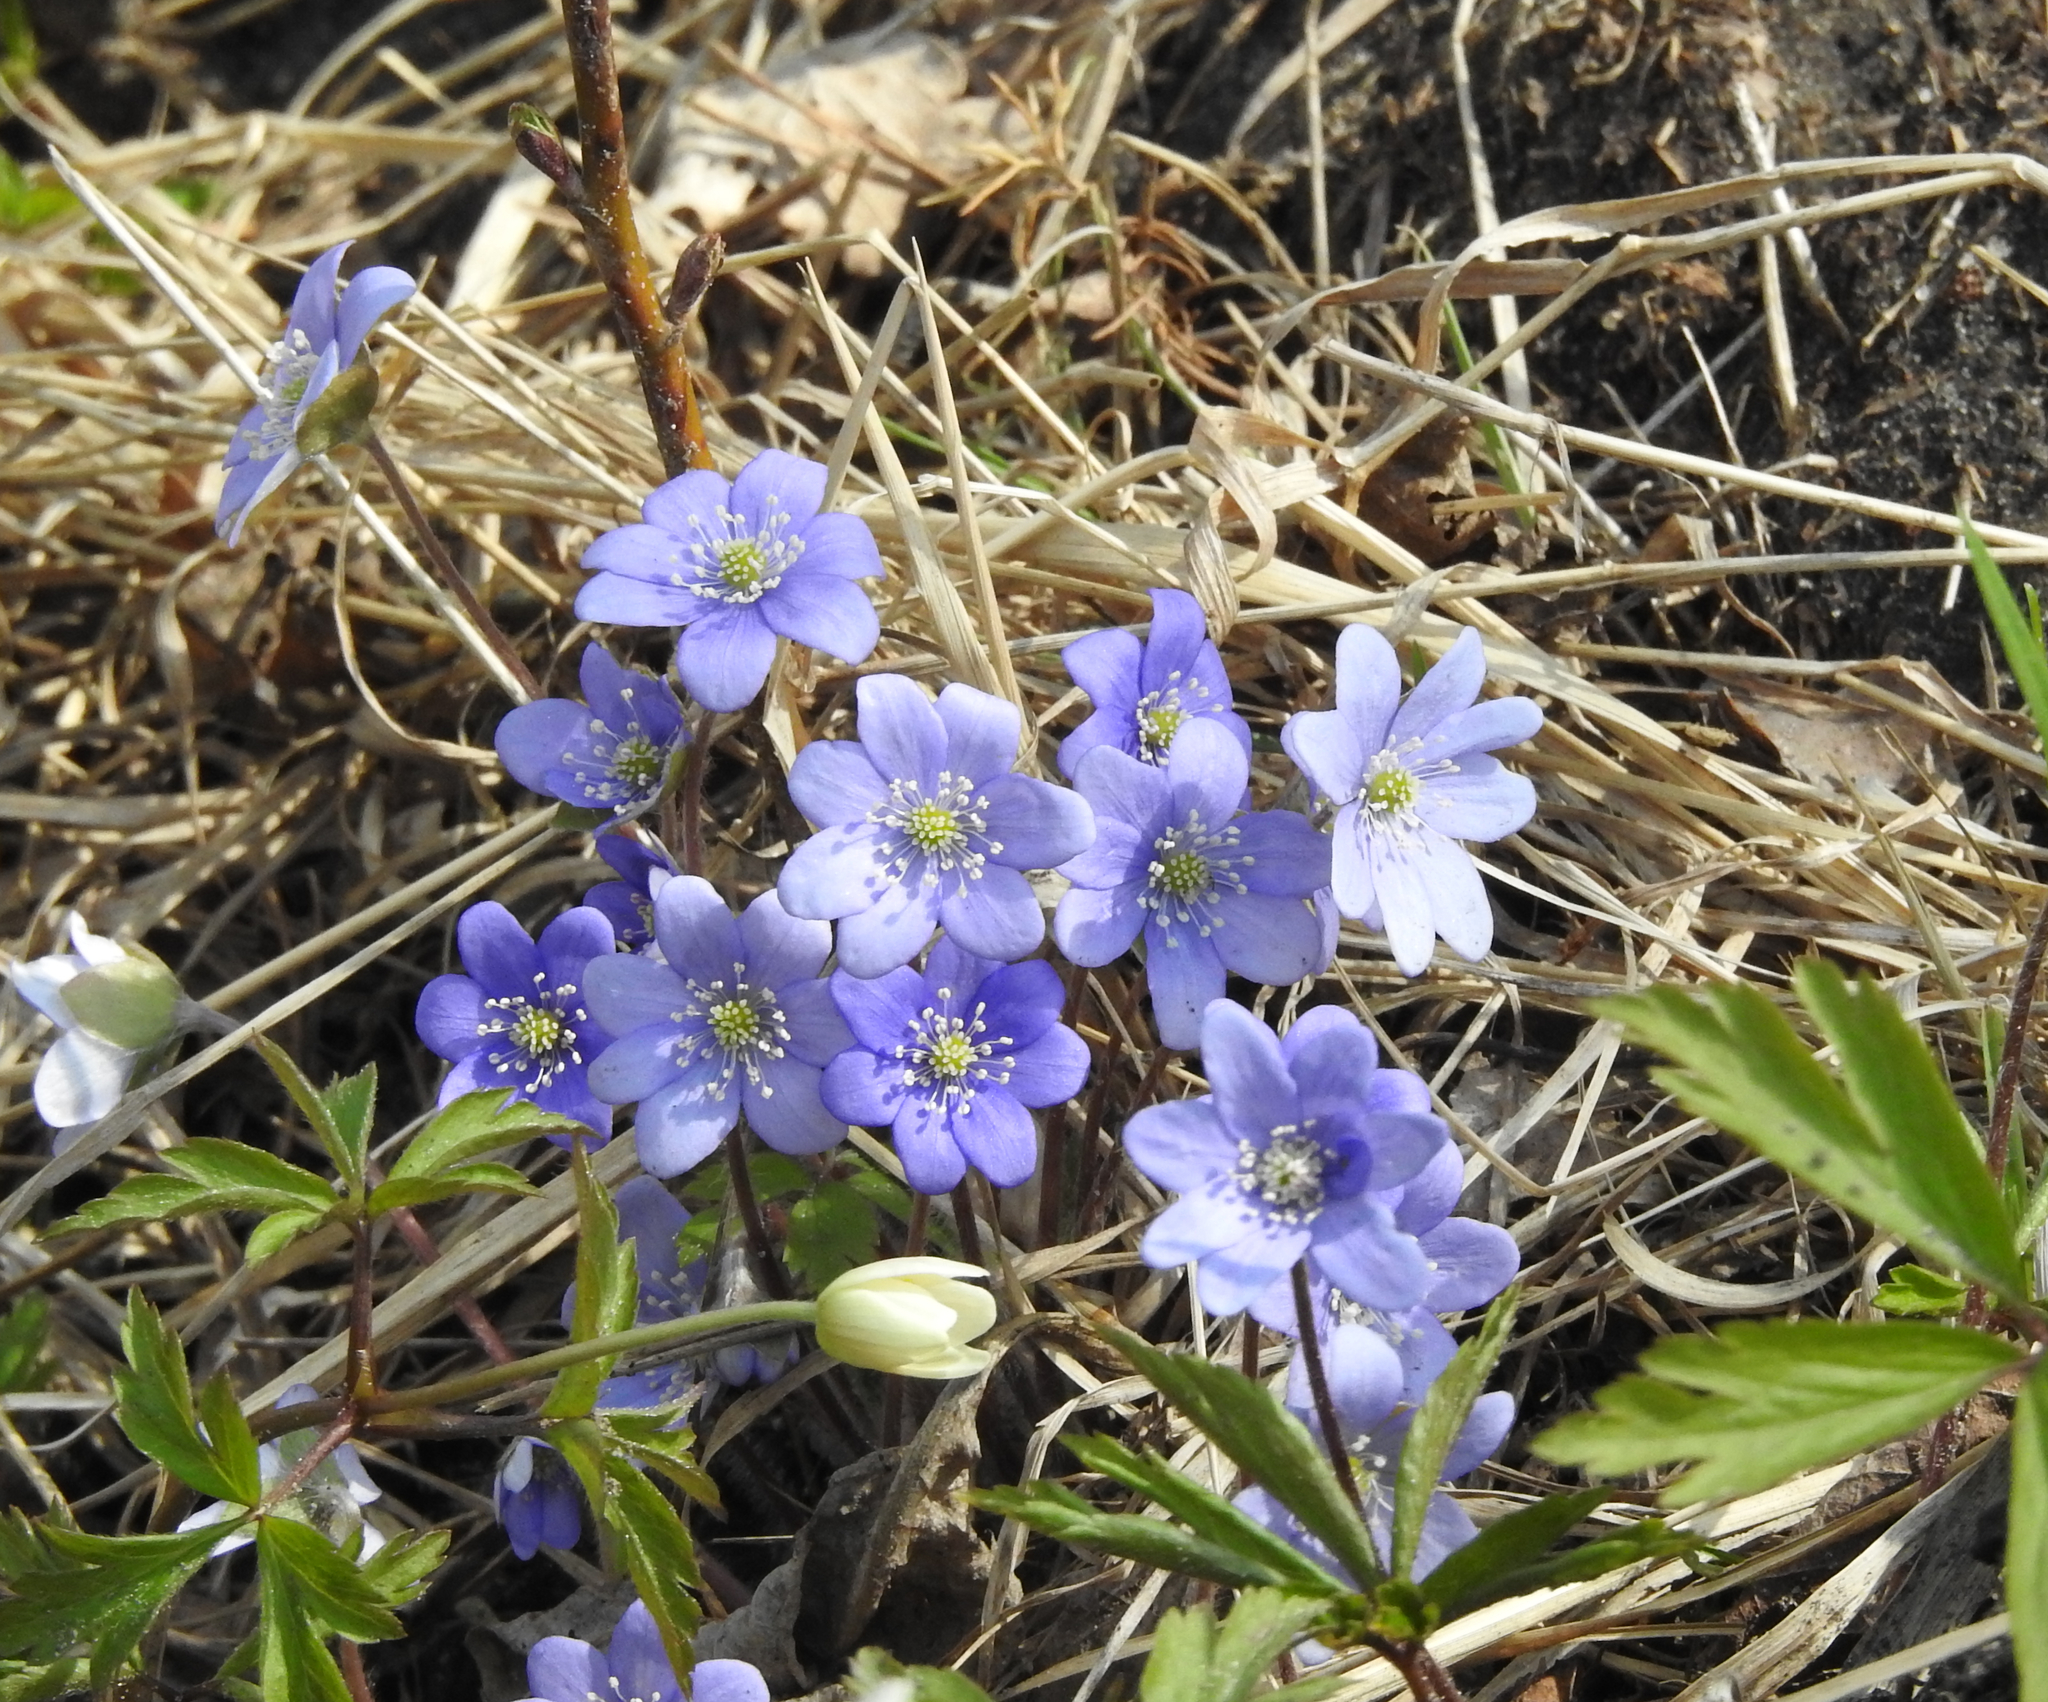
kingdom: Plantae
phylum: Tracheophyta
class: Magnoliopsida
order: Ranunculales
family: Ranunculaceae
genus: Hepatica
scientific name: Hepatica nobilis
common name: Liverleaf
